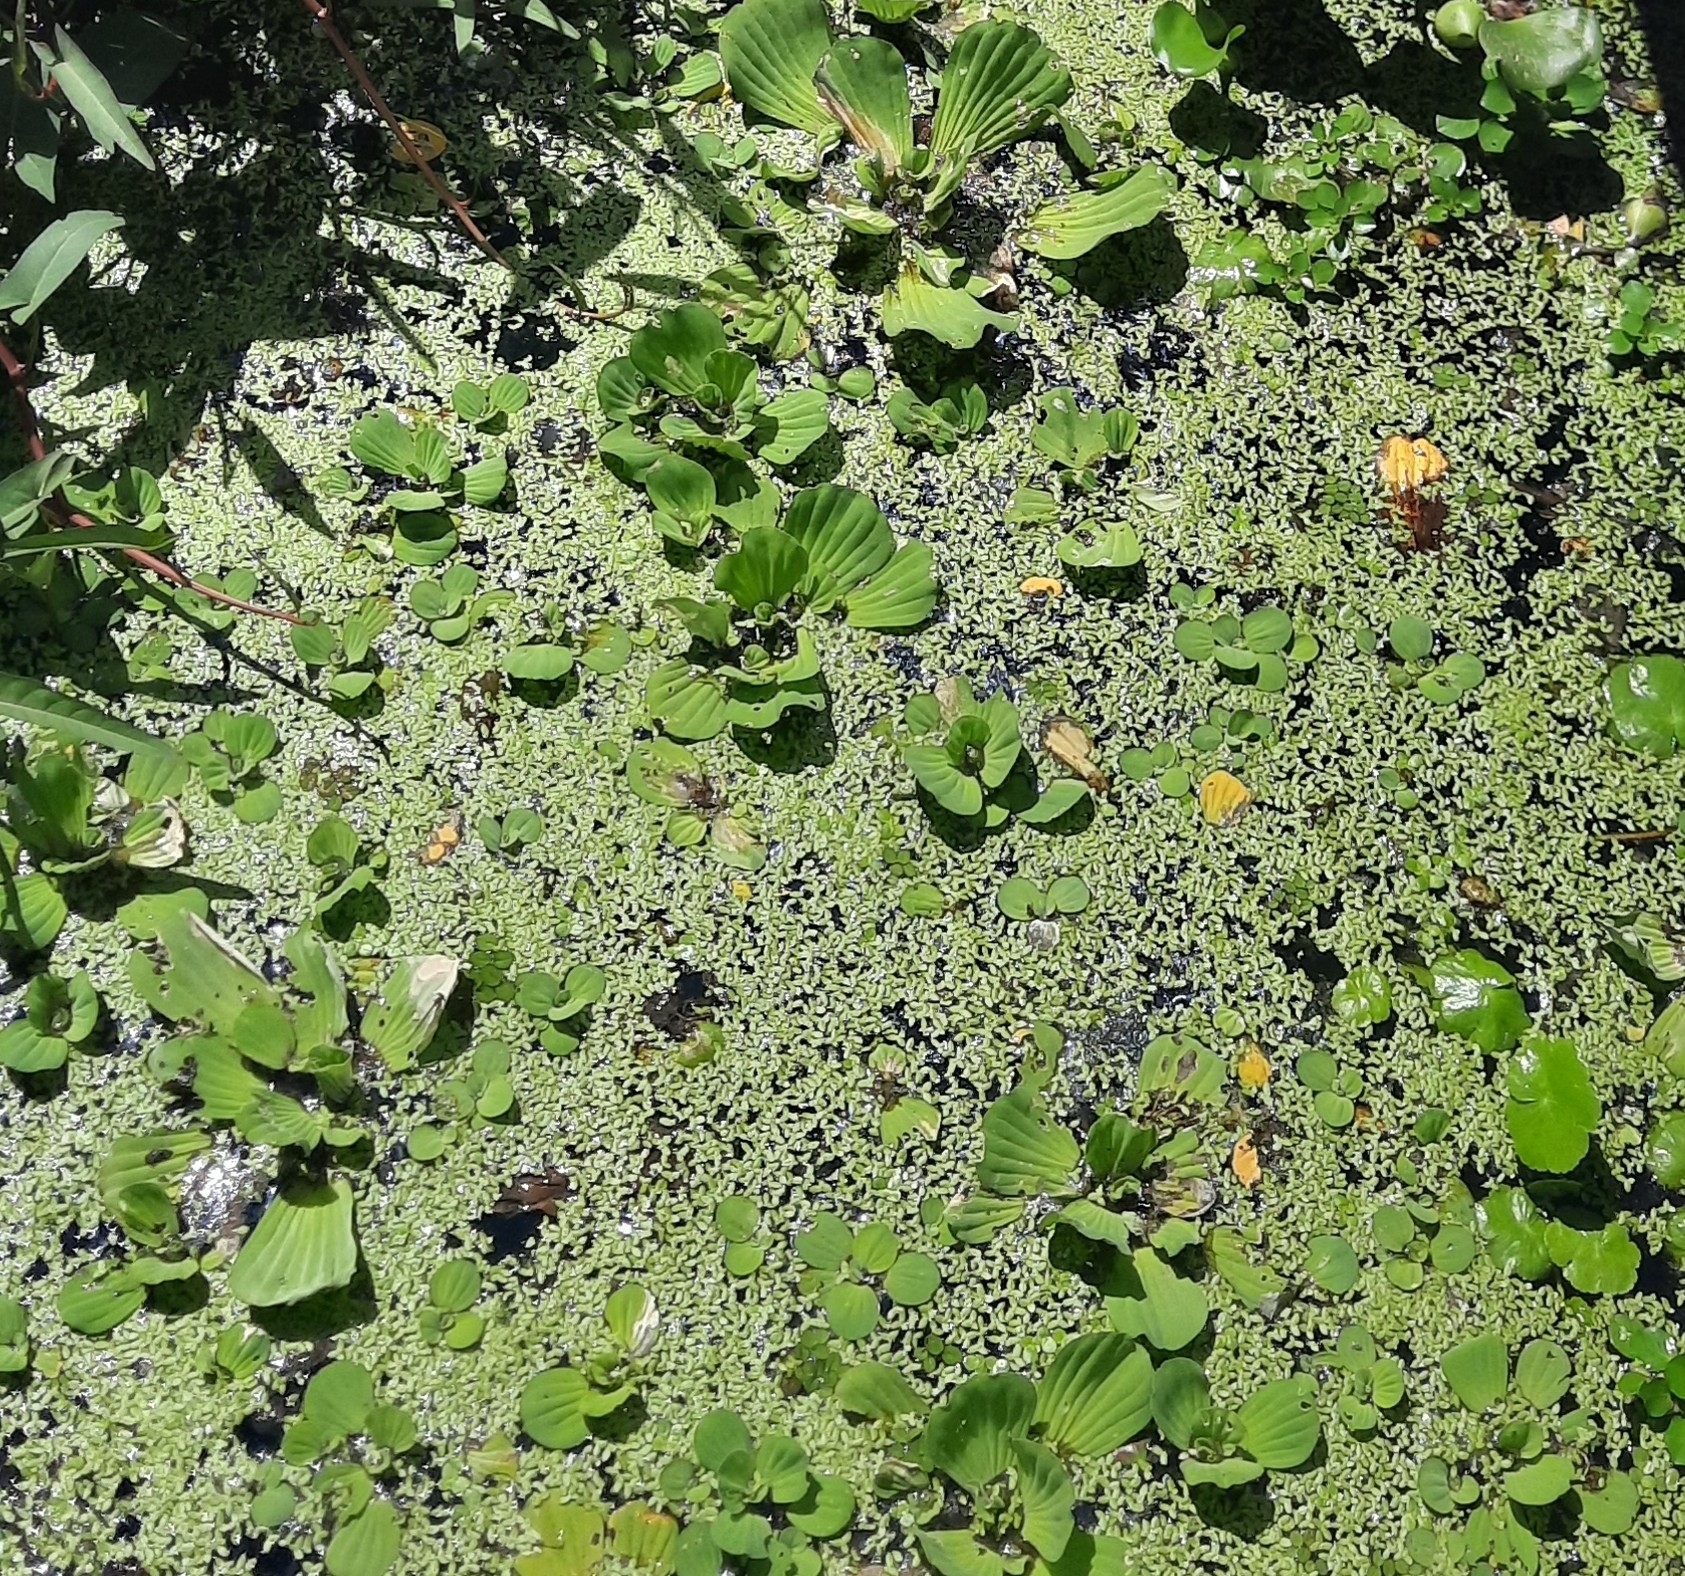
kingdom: Plantae
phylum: Tracheophyta
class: Liliopsida
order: Alismatales
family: Araceae
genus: Pistia
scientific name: Pistia stratiotes
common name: Water lettuce
